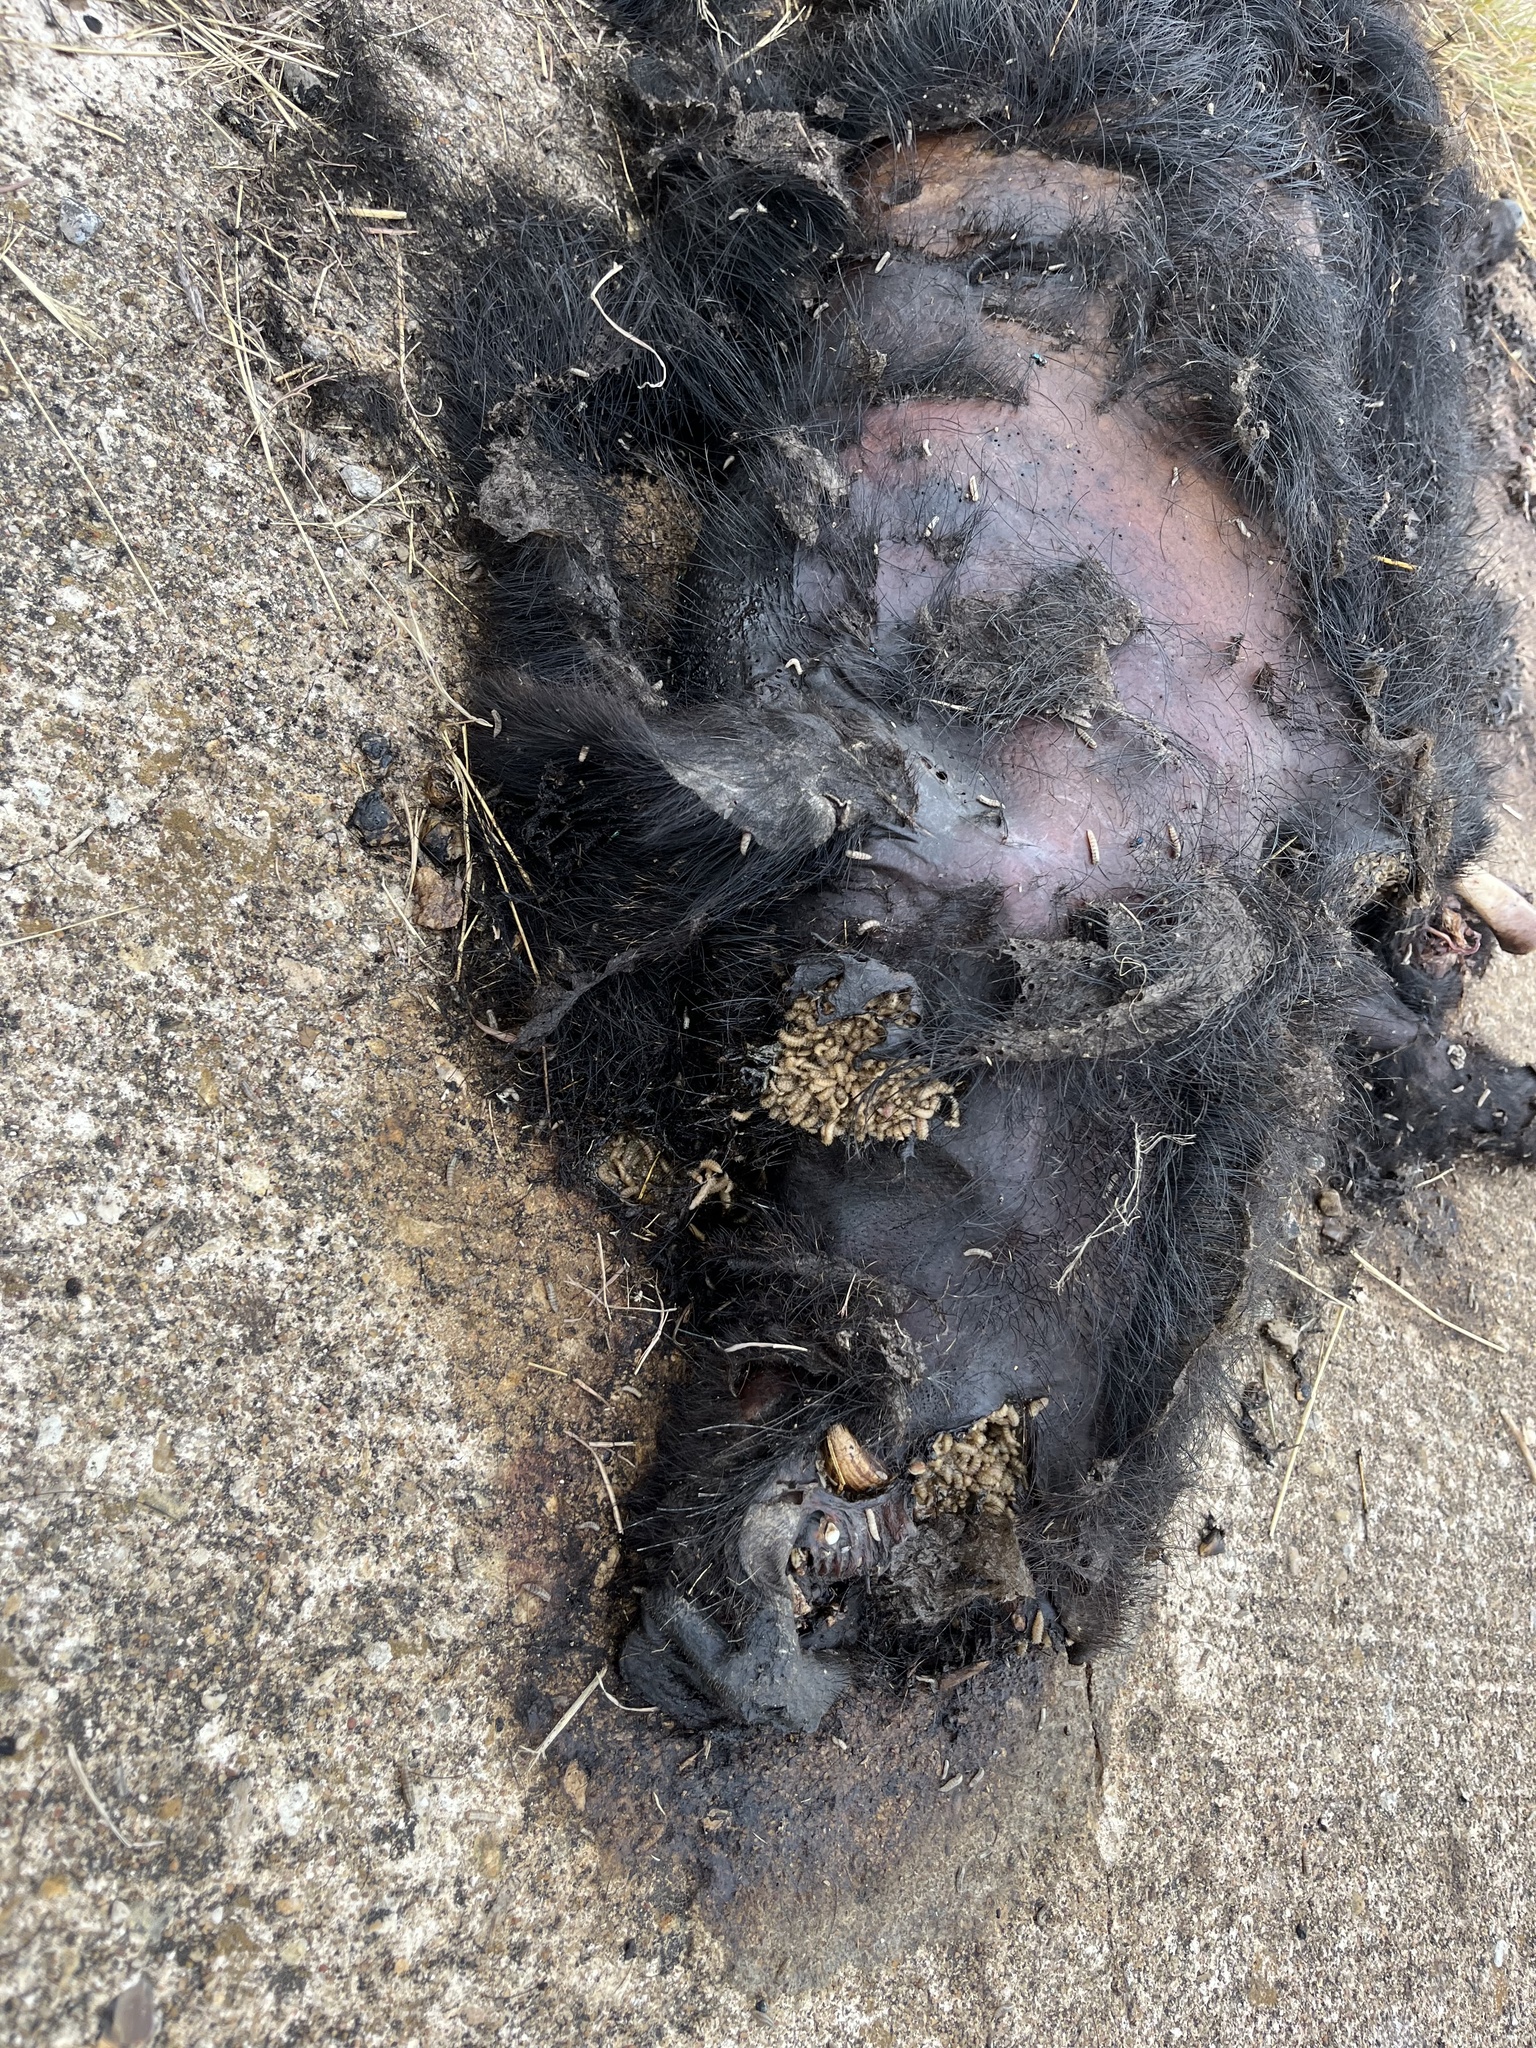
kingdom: Animalia
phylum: Chordata
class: Mammalia
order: Artiodactyla
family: Suidae
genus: Sus
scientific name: Sus scrofa
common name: Wild boar
